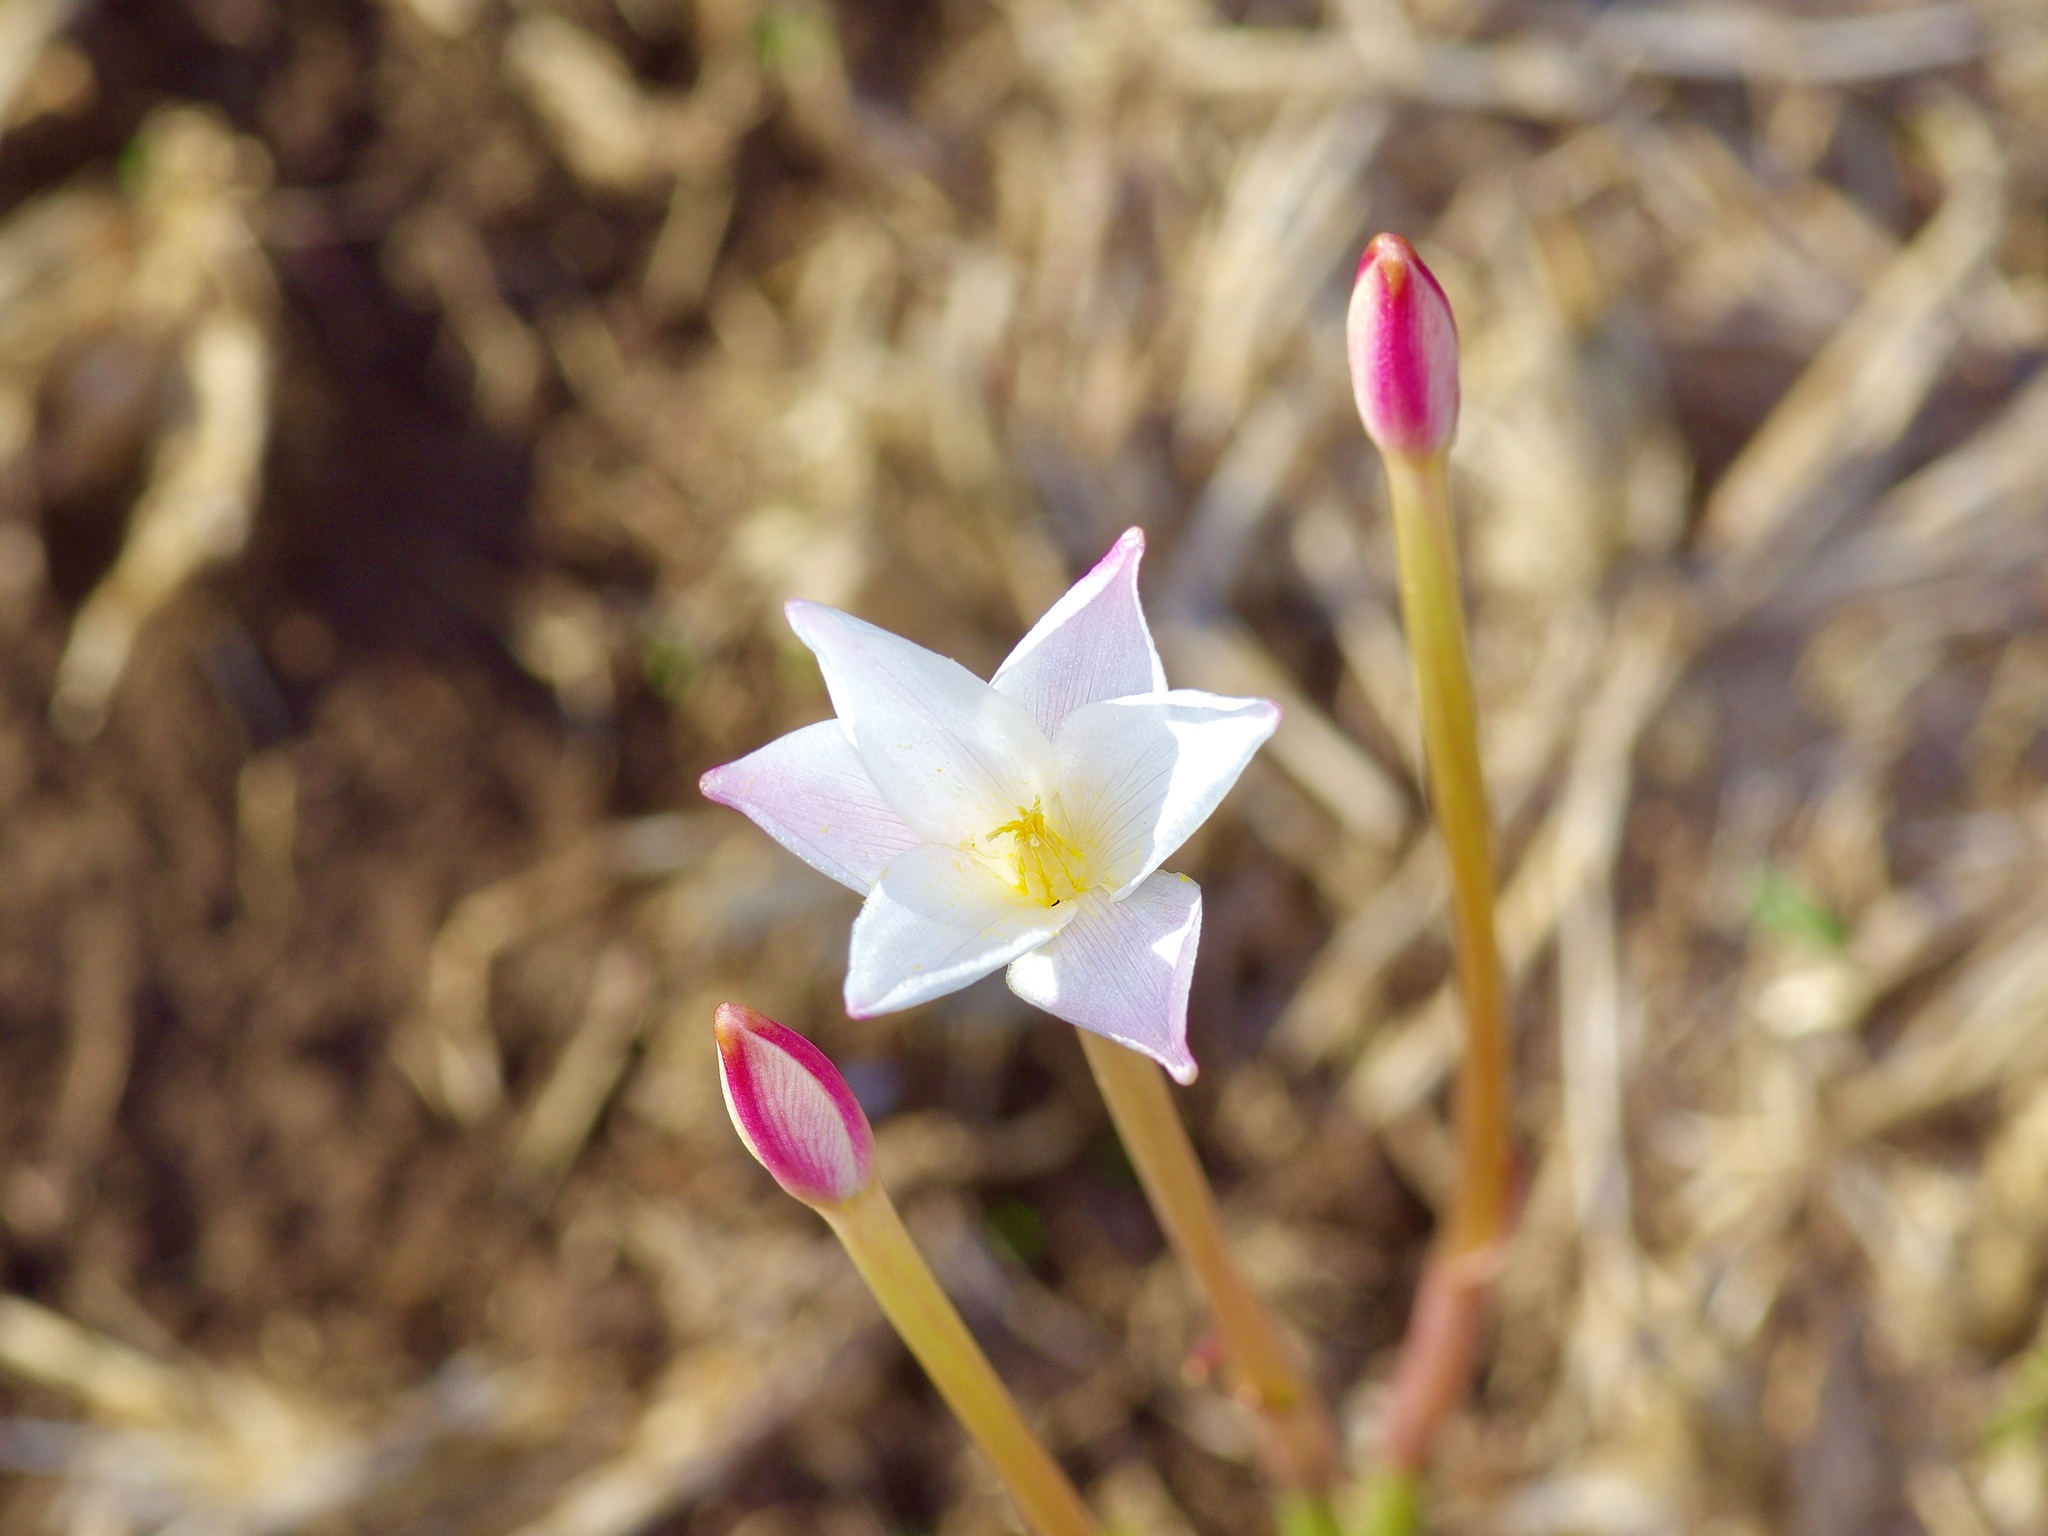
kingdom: Plantae
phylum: Tracheophyta
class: Liliopsida
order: Asparagales
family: Amaryllidaceae
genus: Zephyranthes
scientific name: Zephyranthes chlorosolen
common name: Evening rain-lily
